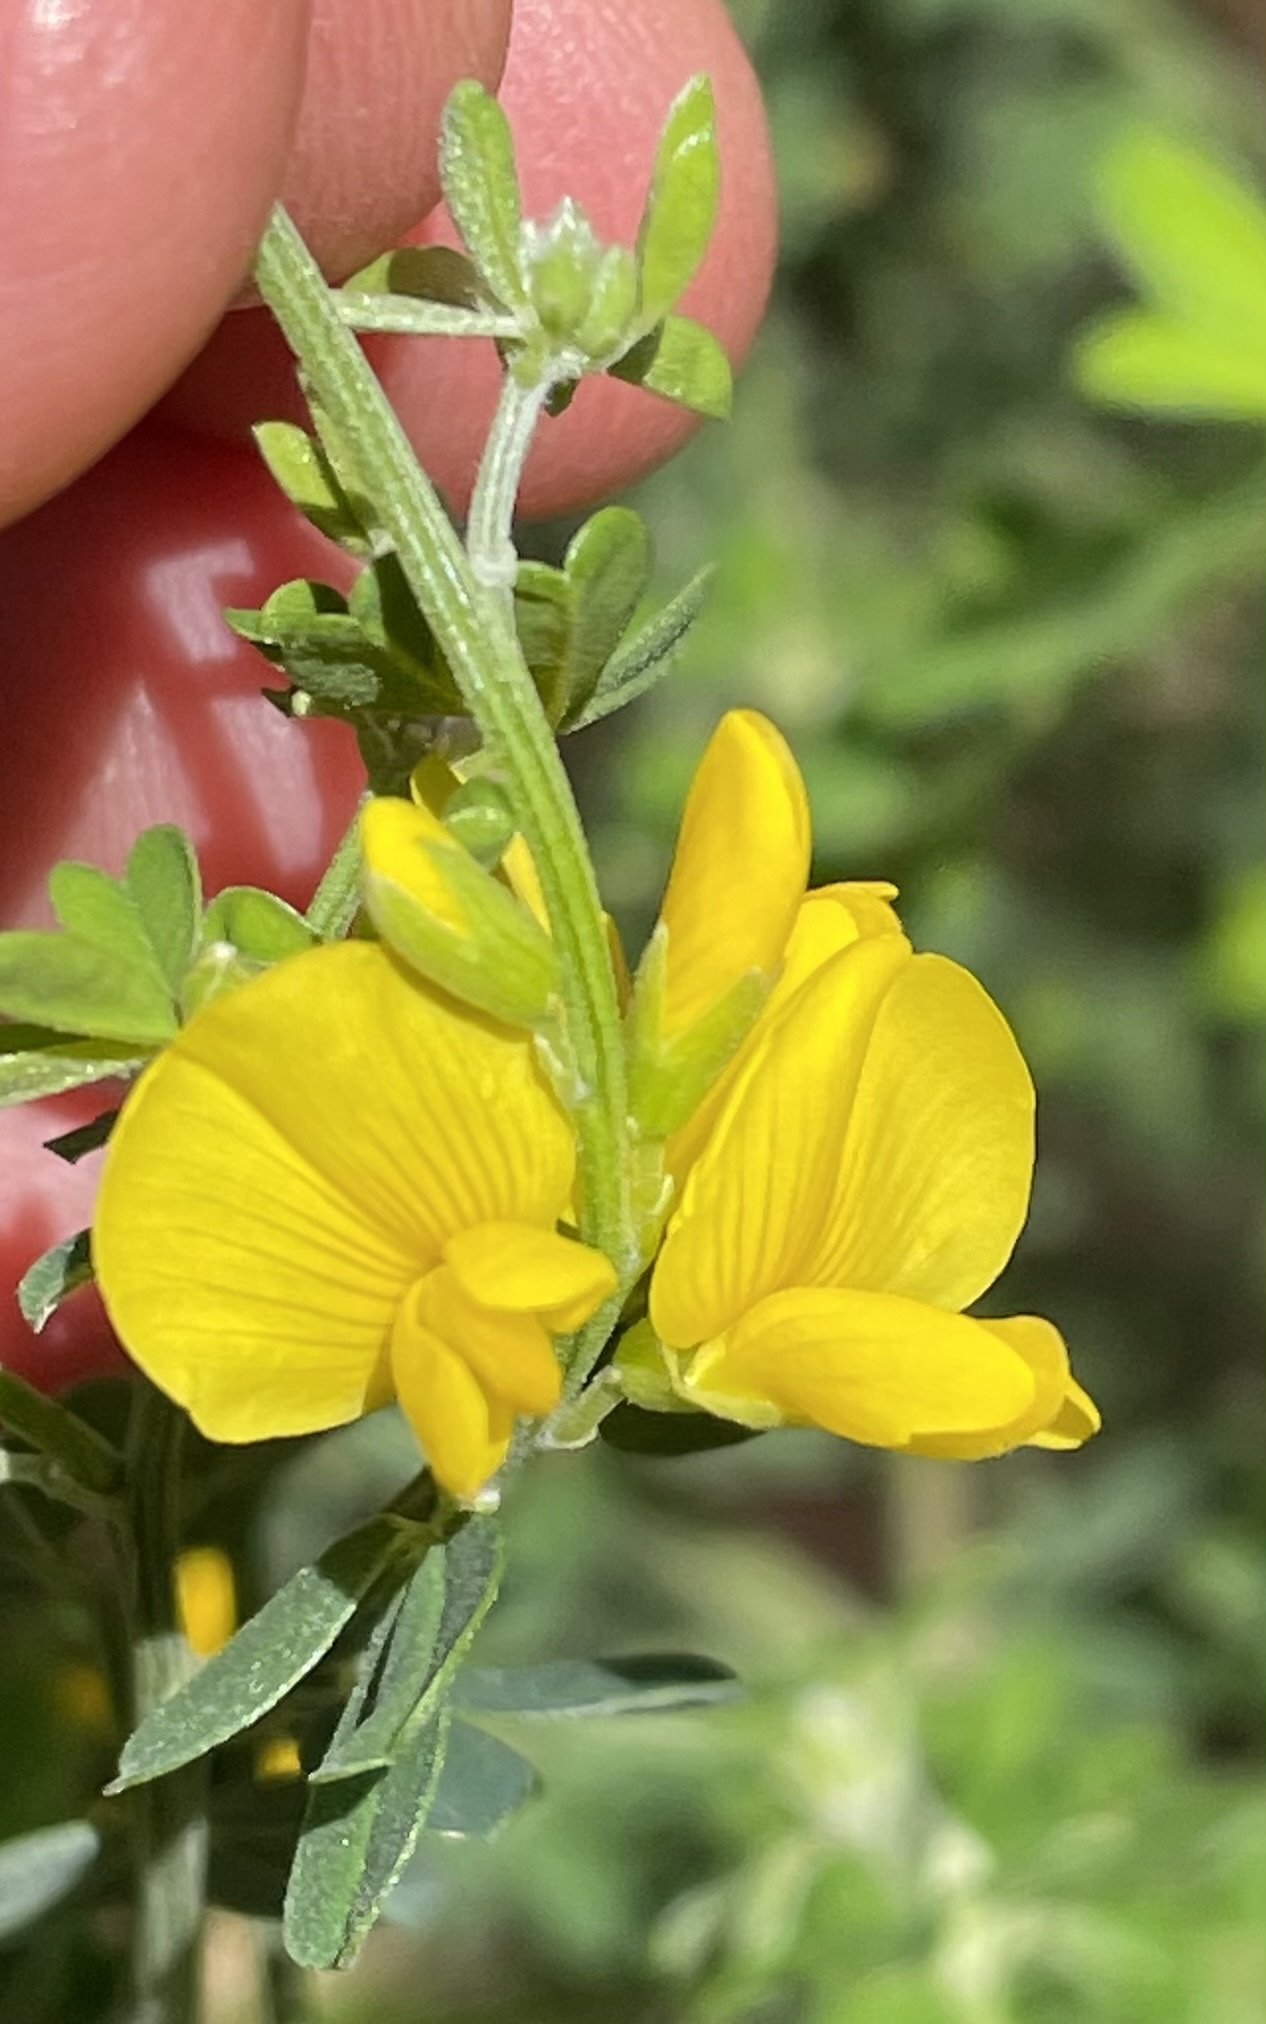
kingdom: Plantae
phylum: Tracheophyta
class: Magnoliopsida
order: Fabales
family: Fabaceae
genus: Genista
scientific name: Genista monspessulana
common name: Montpellier broom
